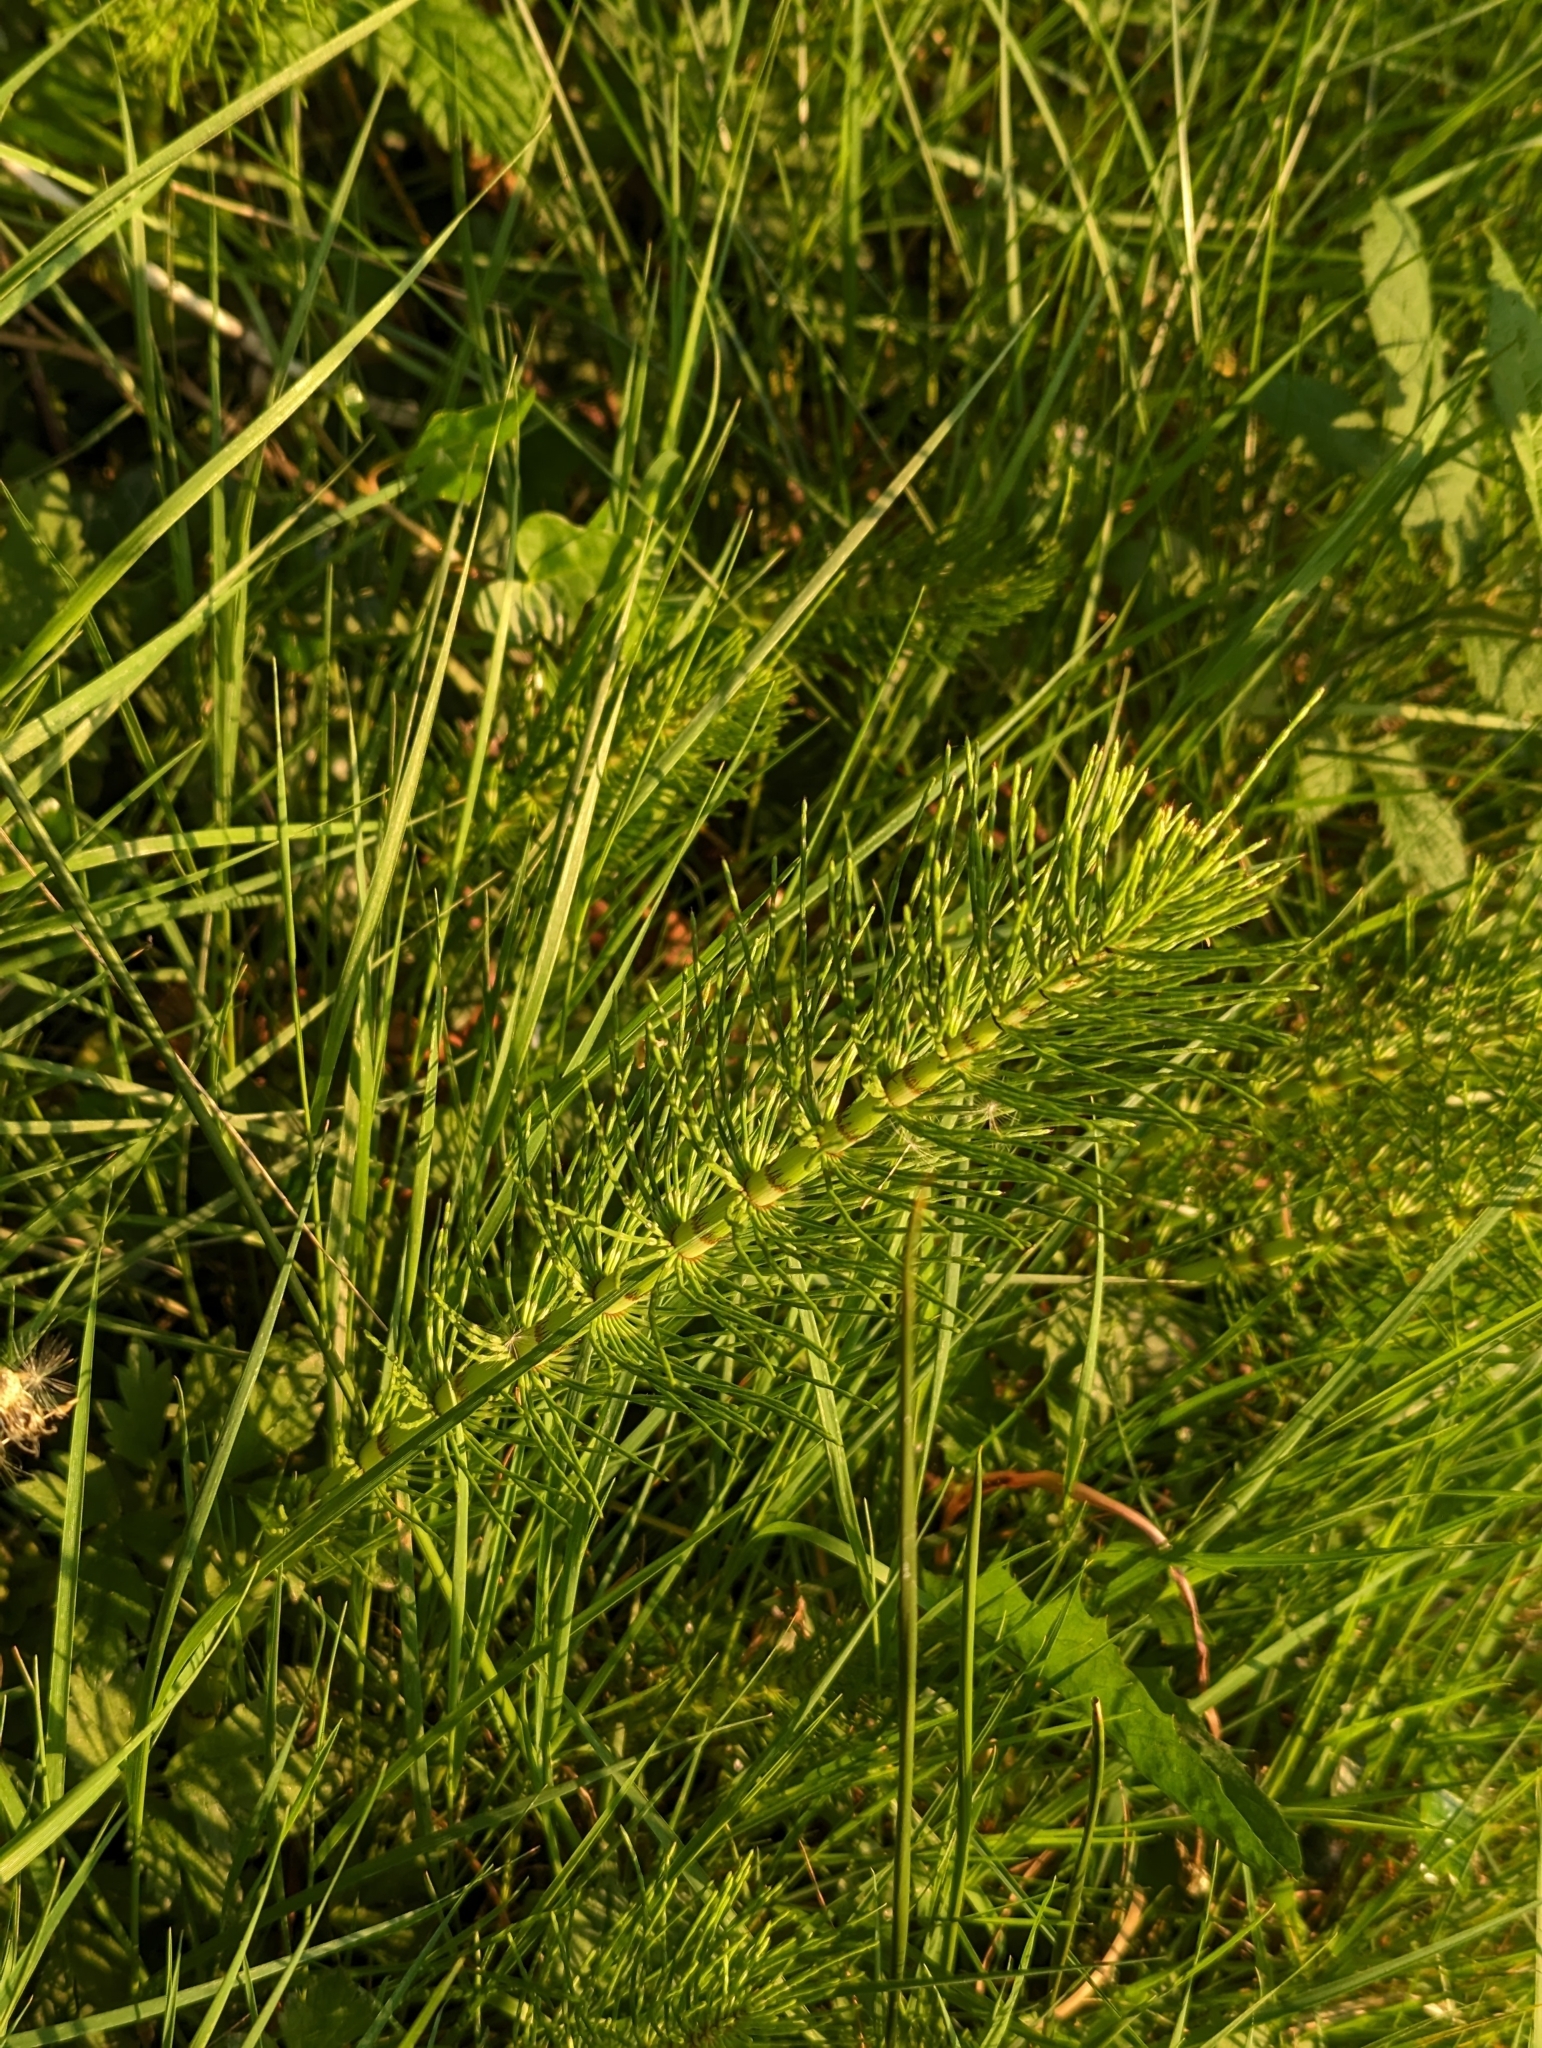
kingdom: Plantae
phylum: Tracheophyta
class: Polypodiopsida
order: Equisetales
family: Equisetaceae
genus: Equisetum
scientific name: Equisetum braunii
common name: Braun's horsetail
